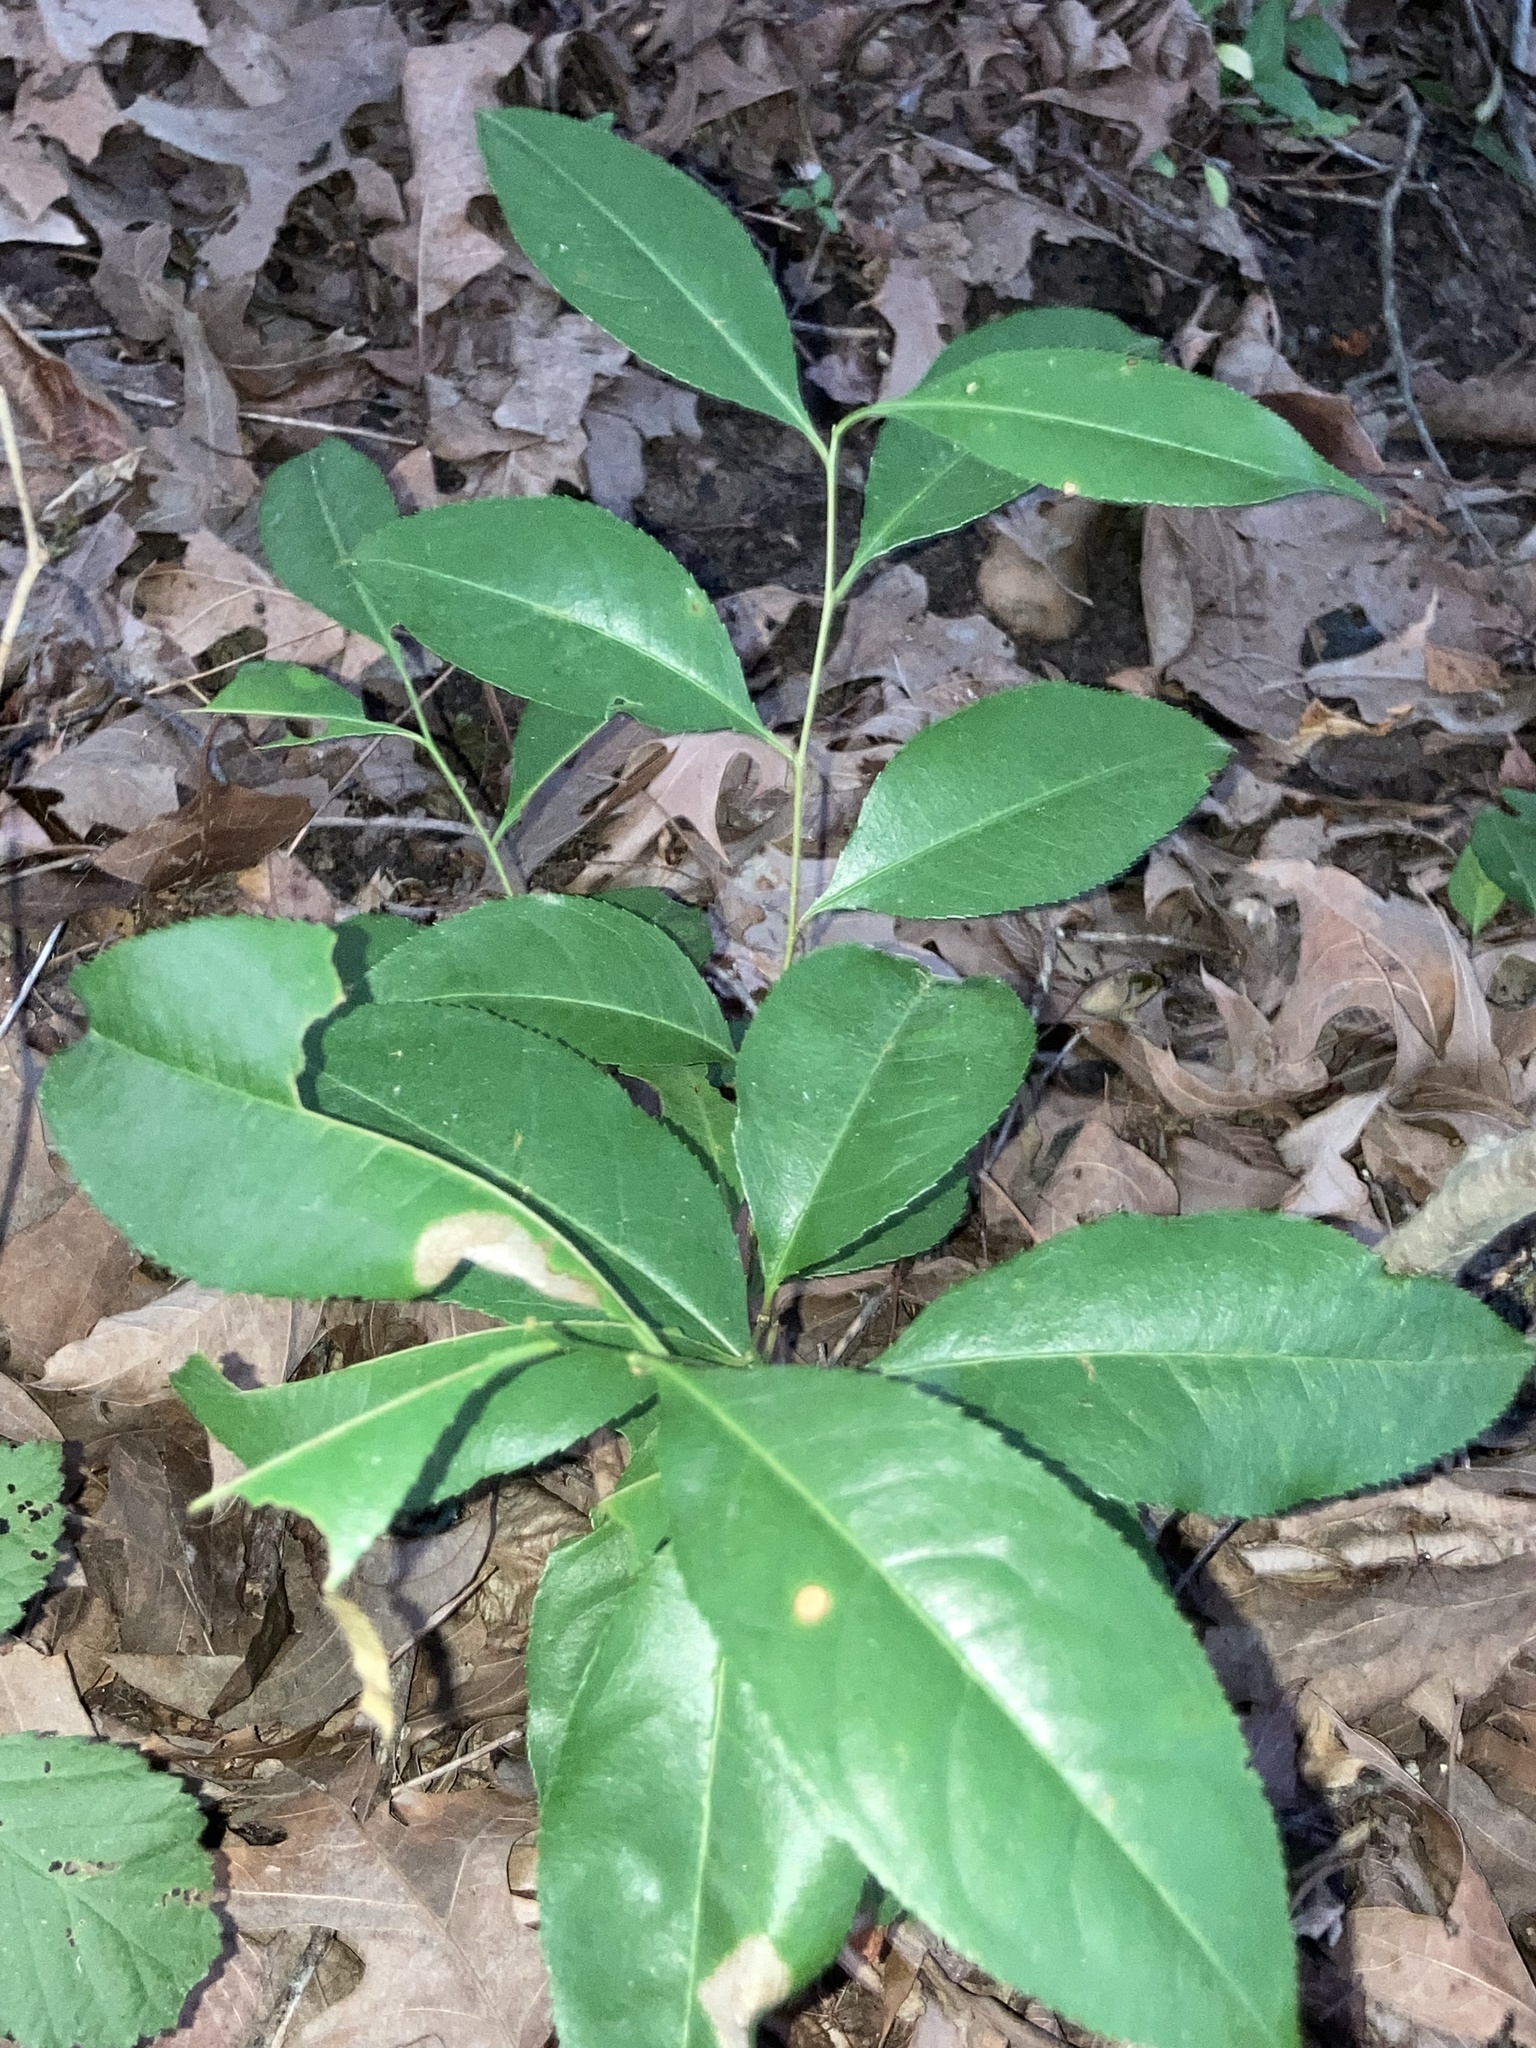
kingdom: Plantae
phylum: Tracheophyta
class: Magnoliopsida
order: Rosales
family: Rosaceae
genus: Prunus
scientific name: Prunus serotina
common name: Black cherry
